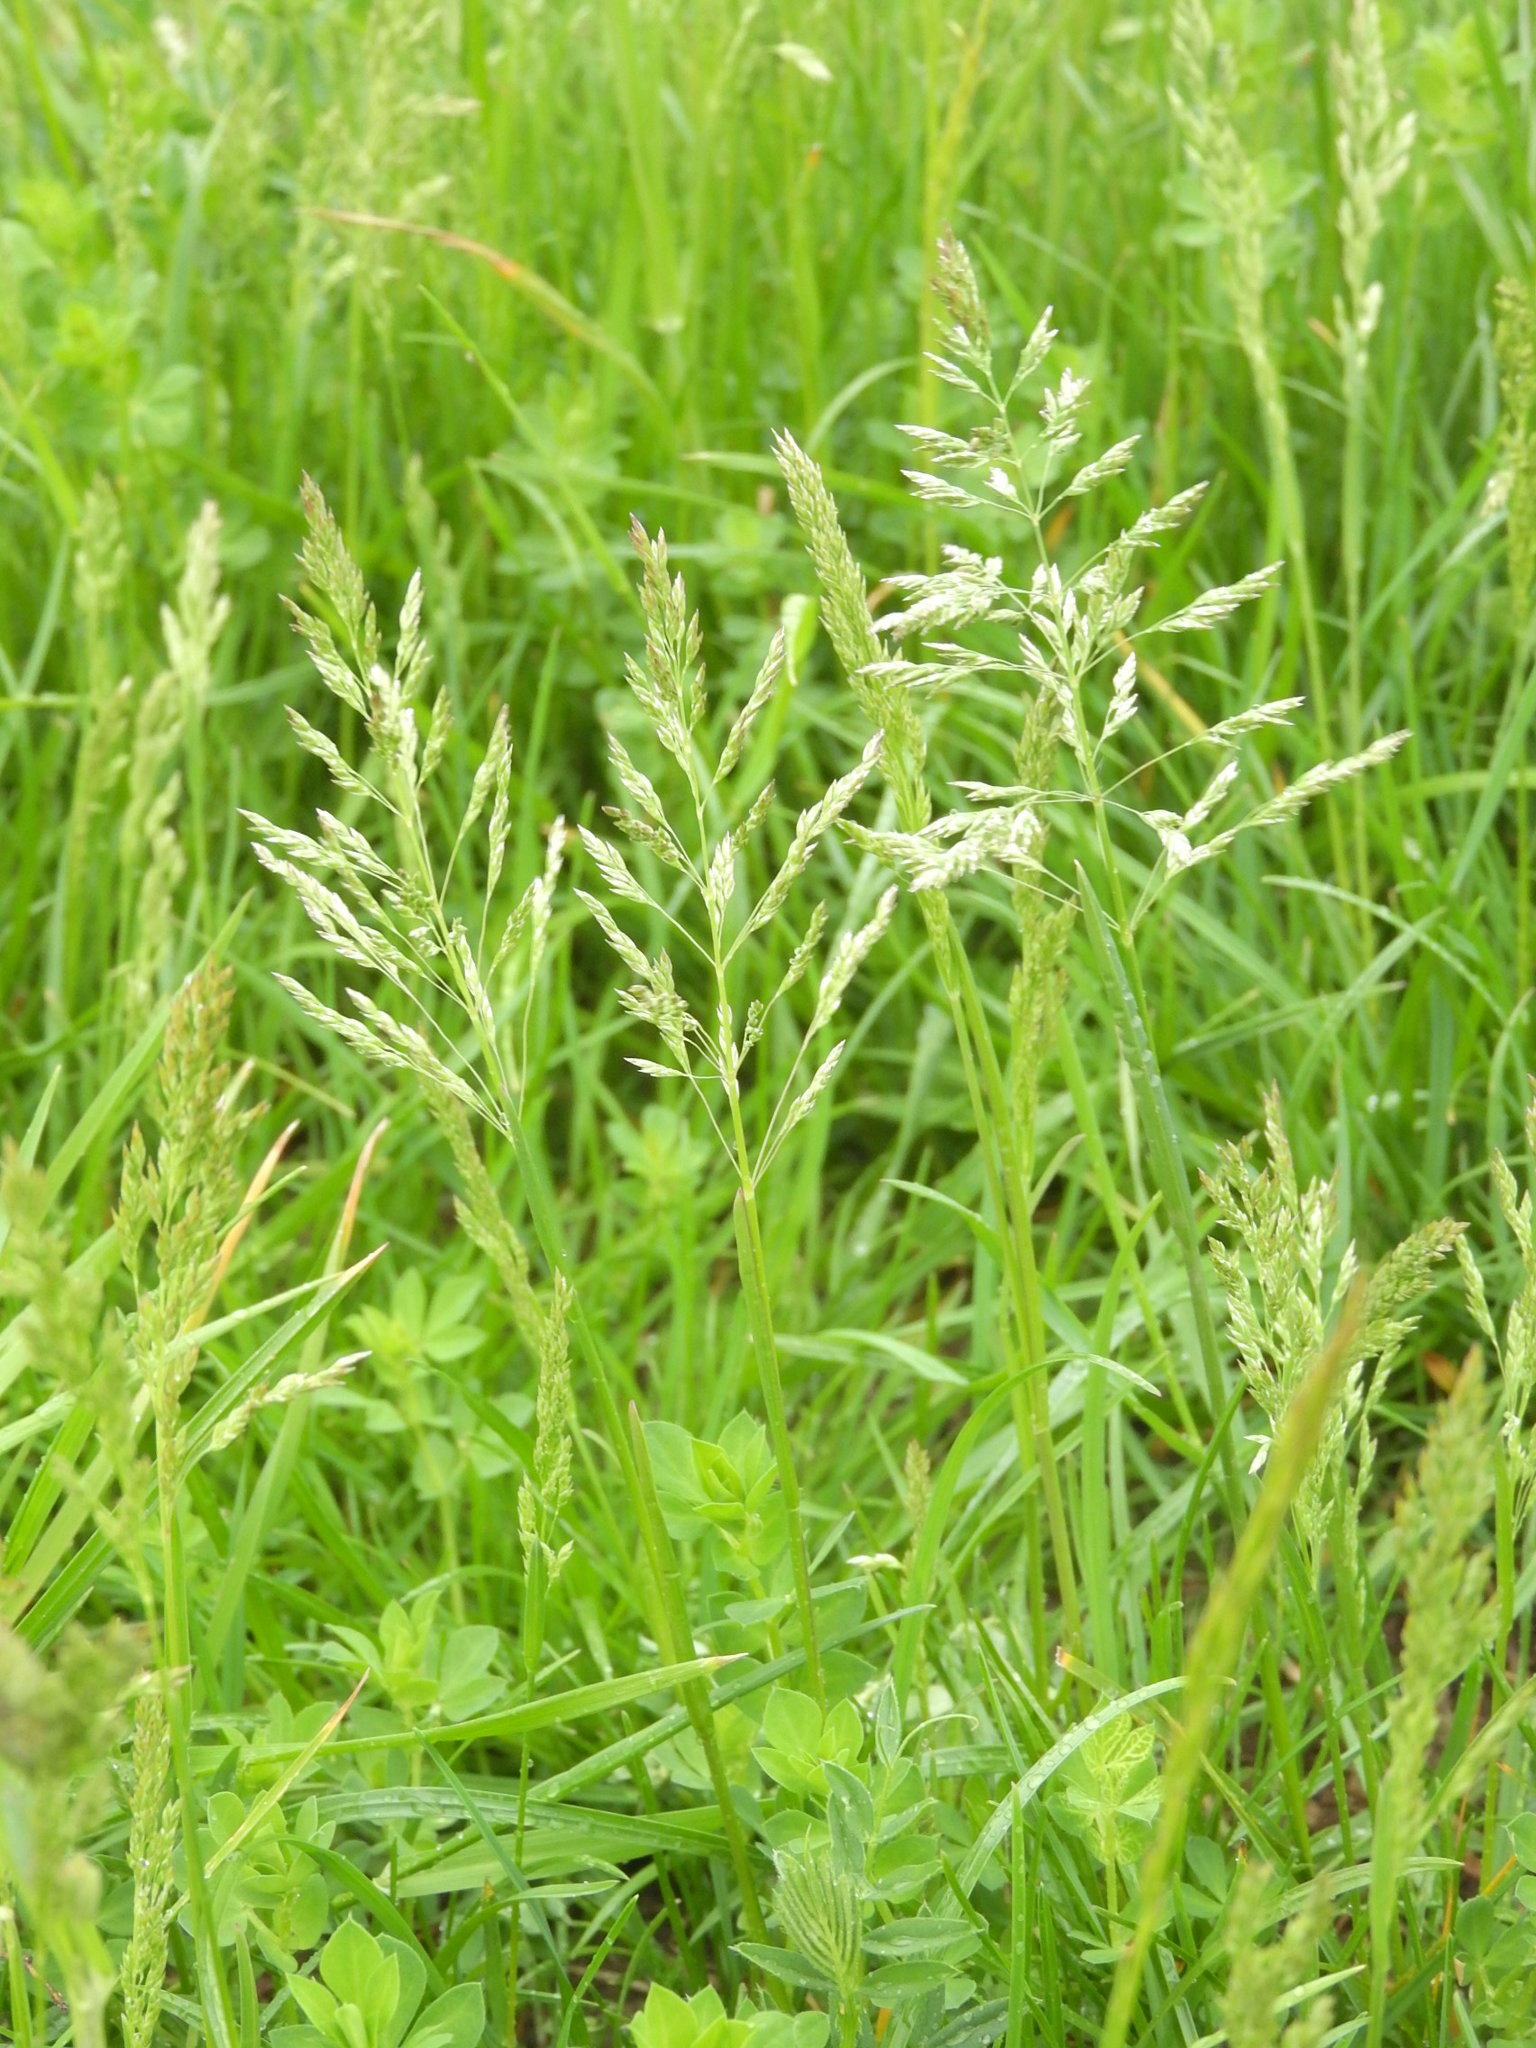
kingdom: Plantae
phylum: Tracheophyta
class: Liliopsida
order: Poales
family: Poaceae
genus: Poa
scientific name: Poa pratensis
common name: Kentucky bluegrass
